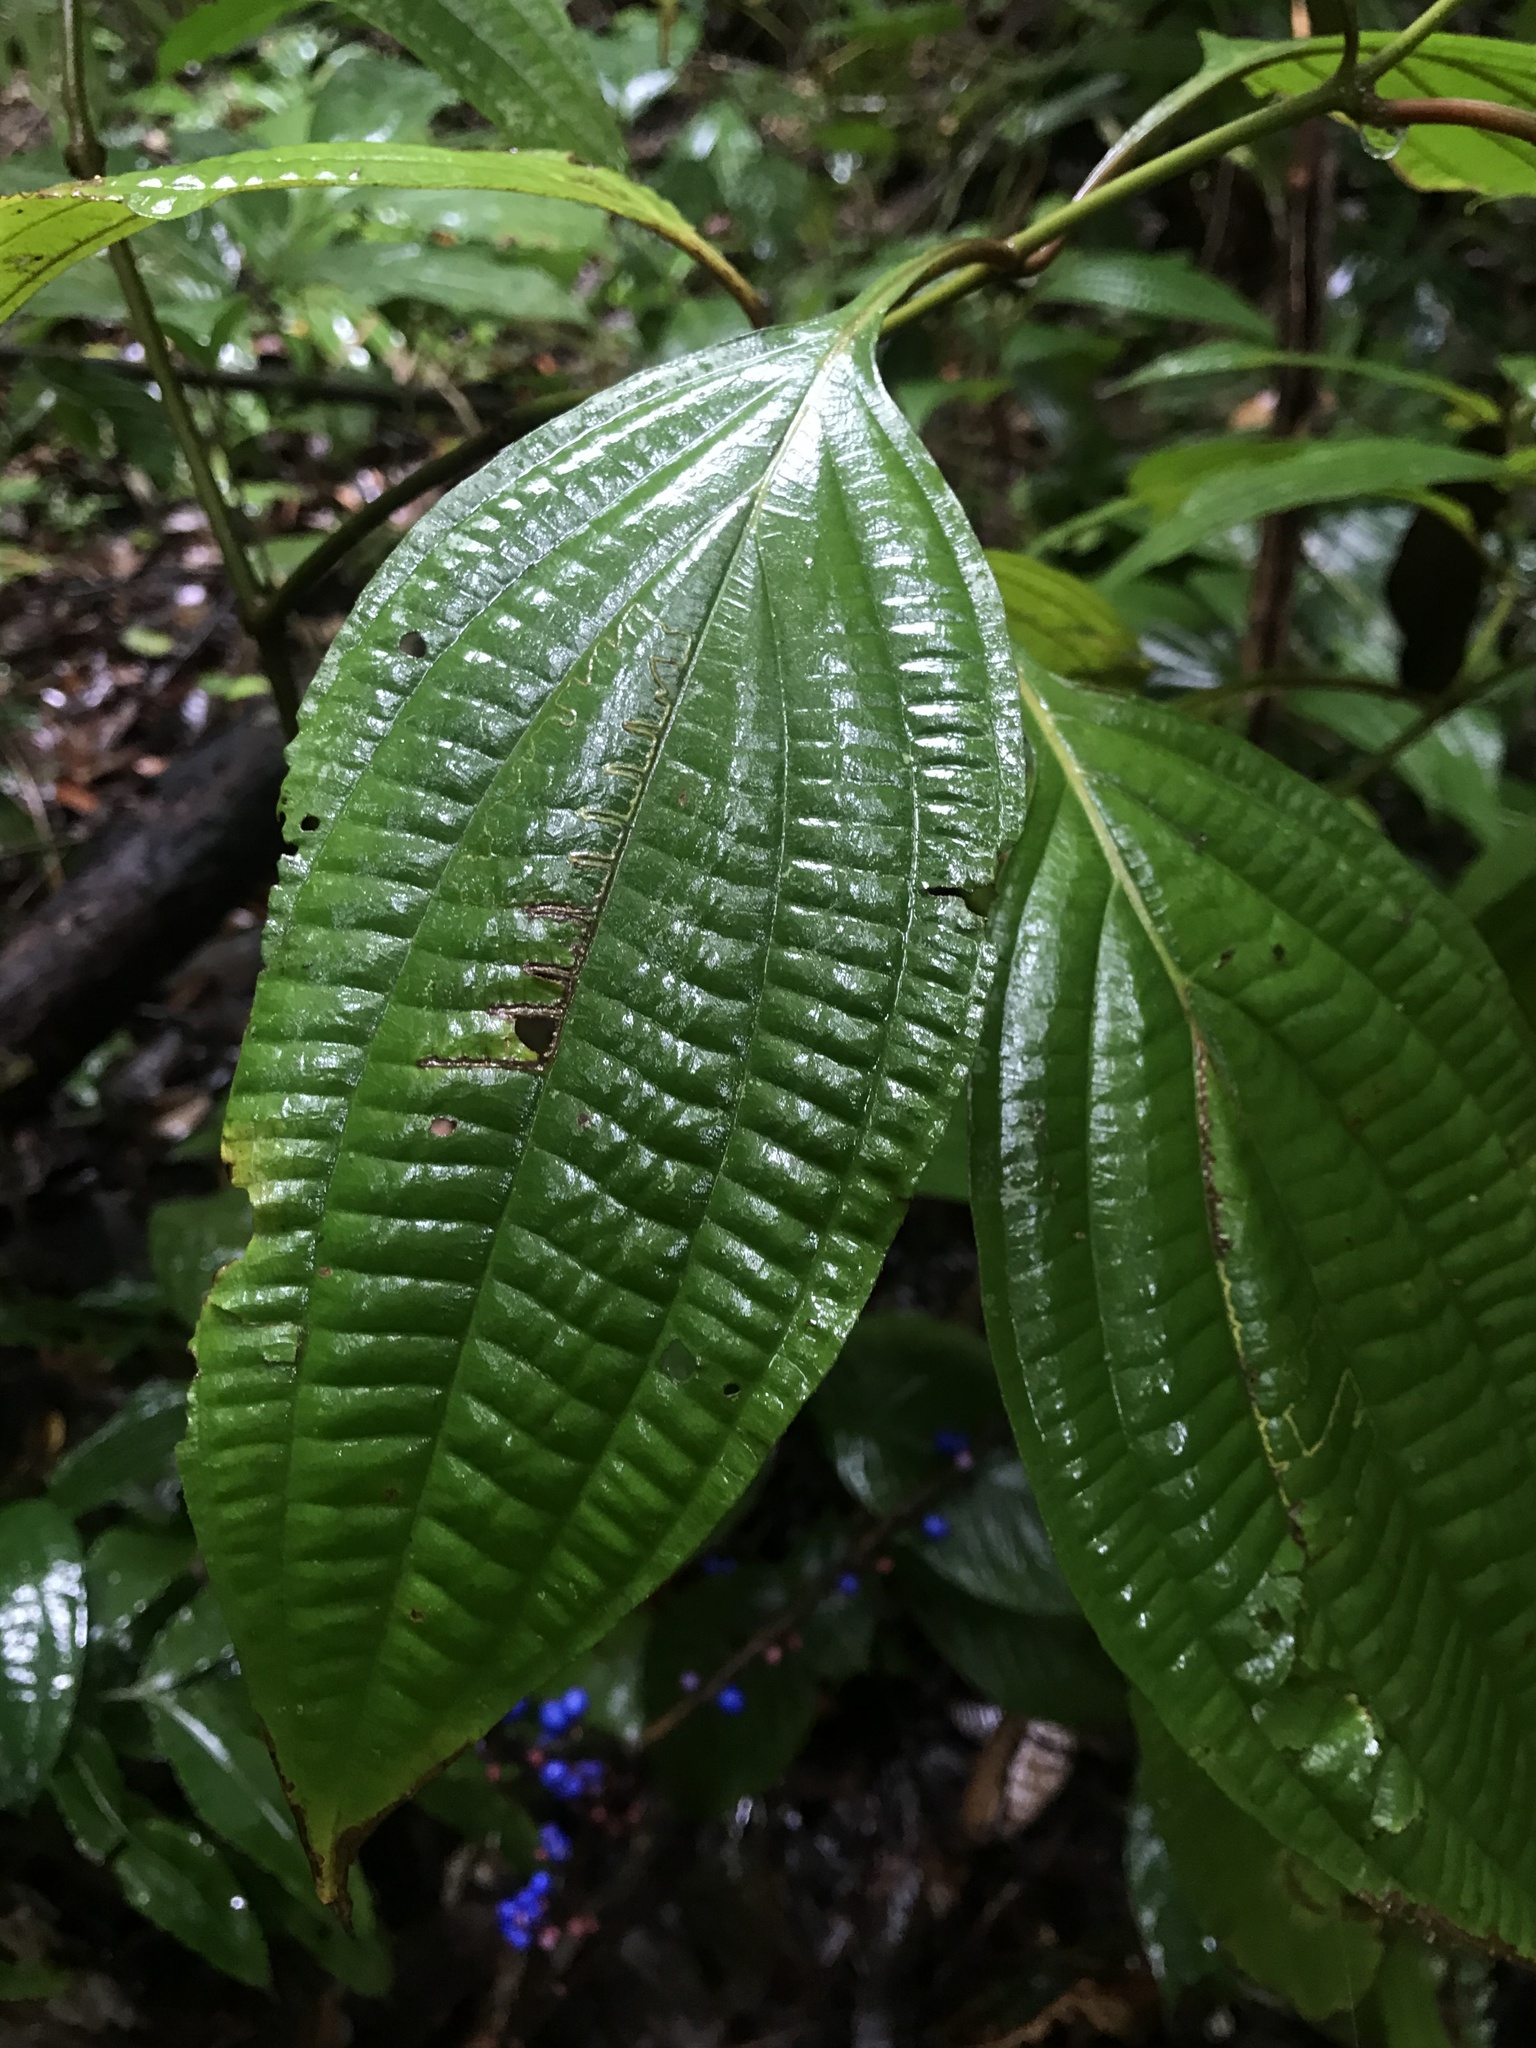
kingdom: Plantae
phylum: Tracheophyta
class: Magnoliopsida
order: Myrtales
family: Melastomataceae
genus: Miconia
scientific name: Miconia trichocalyx
